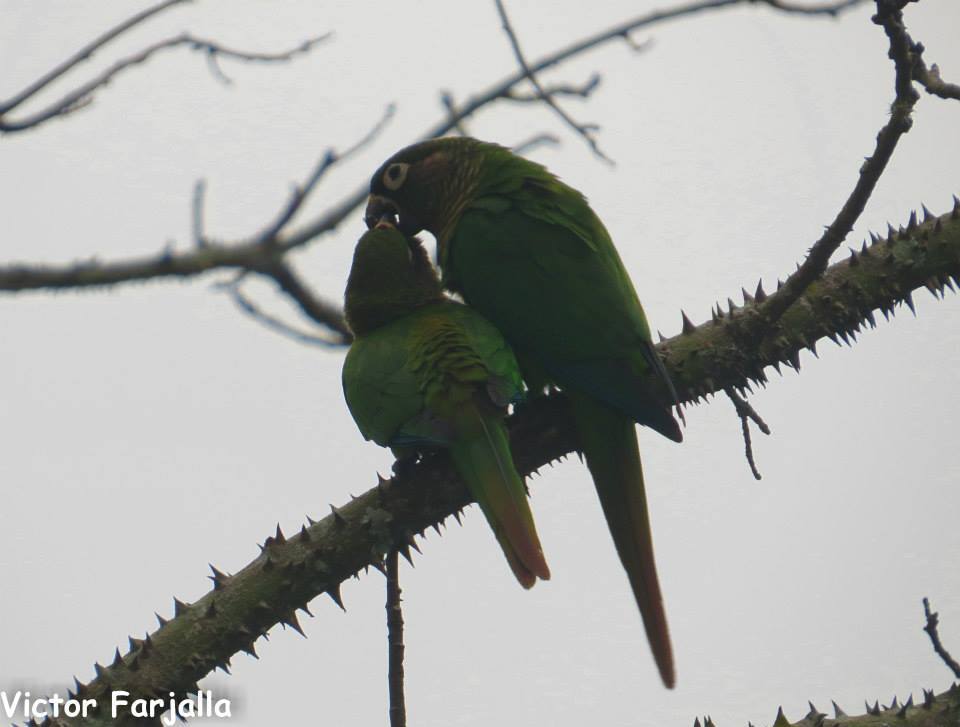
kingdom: Animalia
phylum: Chordata
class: Aves
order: Psittaciformes
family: Psittacidae
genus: Pyrrhura
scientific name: Pyrrhura frontalis
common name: Maroon-bellied parakeet
